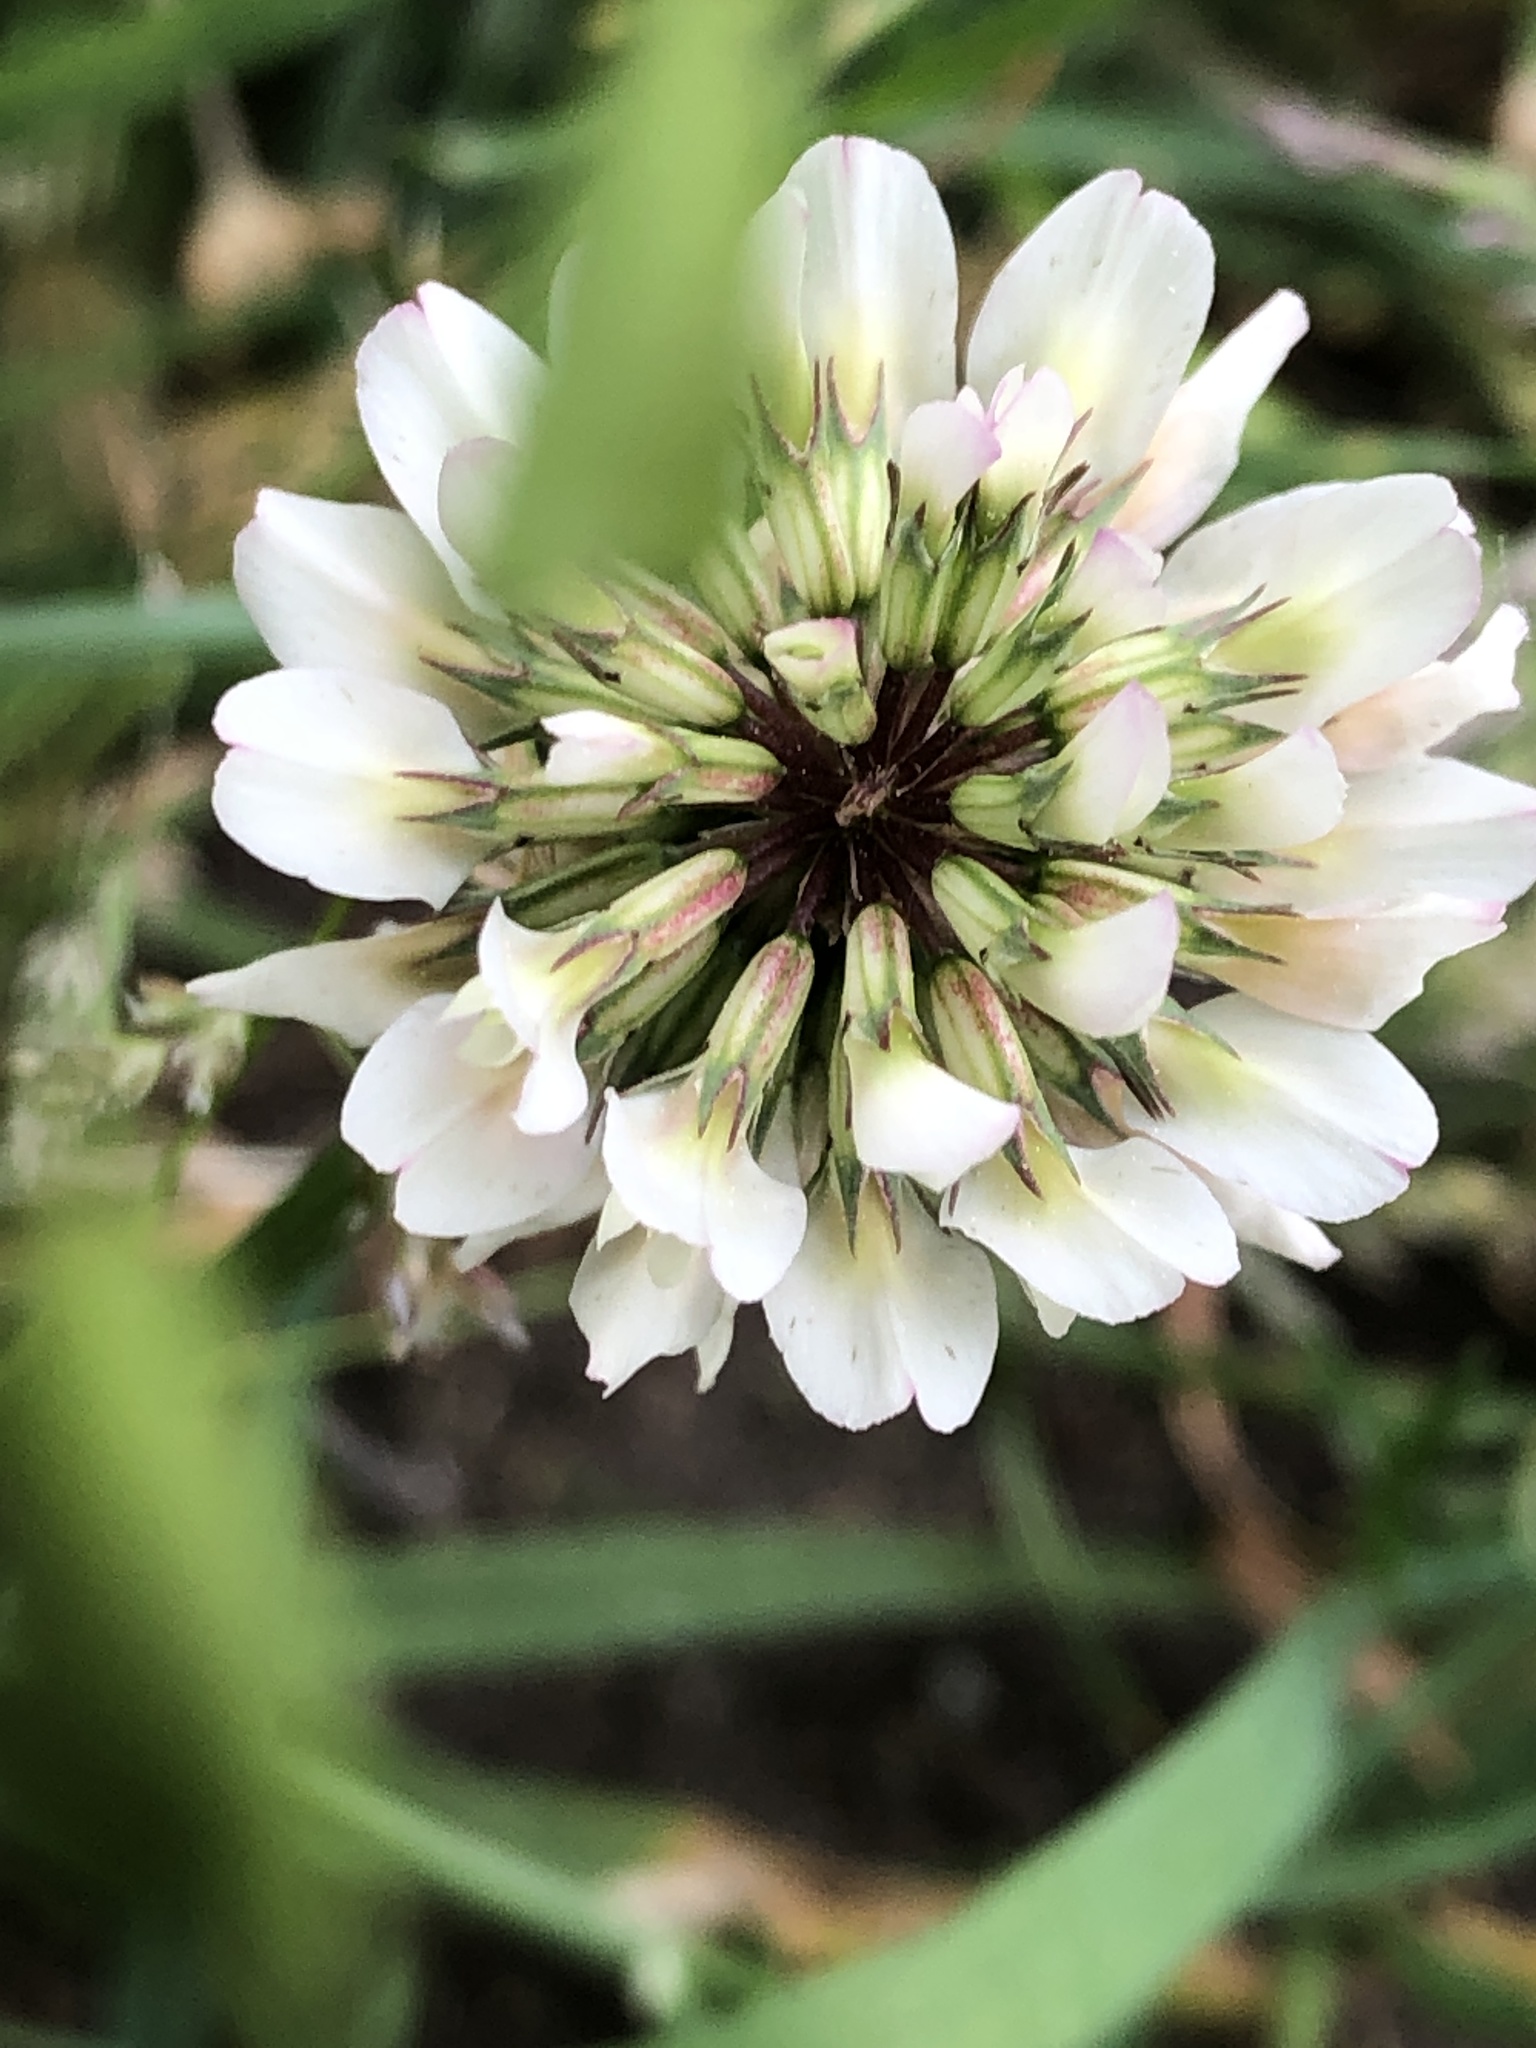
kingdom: Plantae
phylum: Tracheophyta
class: Magnoliopsida
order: Fabales
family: Fabaceae
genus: Trifolium
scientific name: Trifolium repens
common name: White clover
